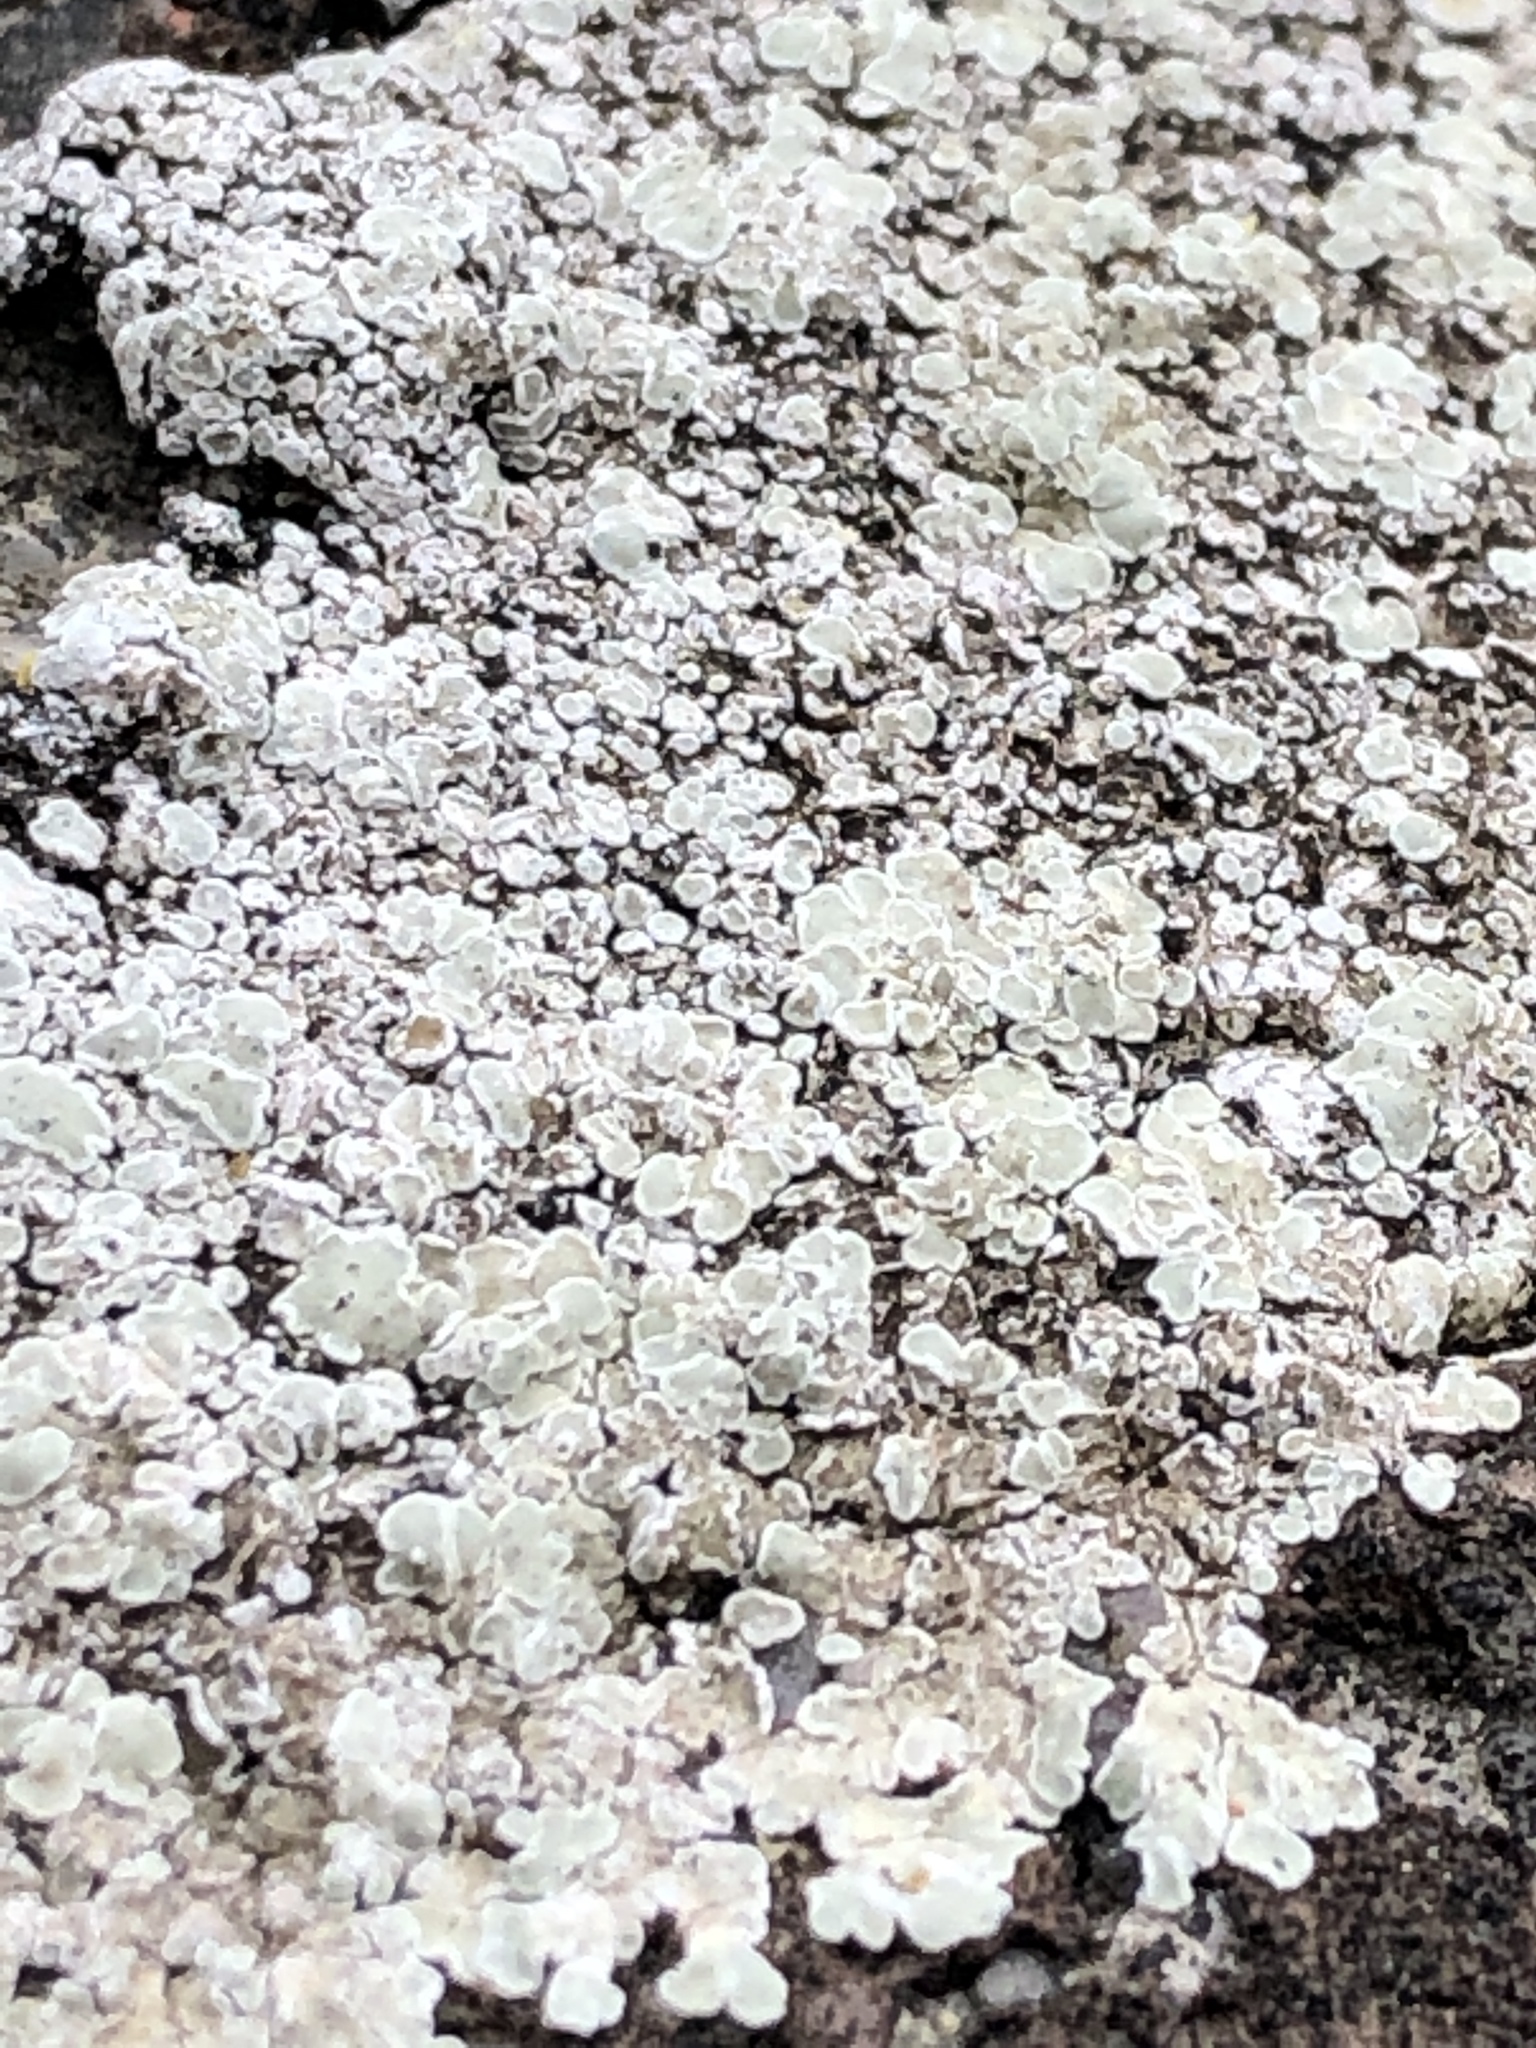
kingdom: Fungi
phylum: Ascomycota
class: Lecanoromycetes
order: Lecanorales
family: Lecanoraceae
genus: Protoparmeliopsis
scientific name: Protoparmeliopsis muralis
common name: Stonewall rim lichen
